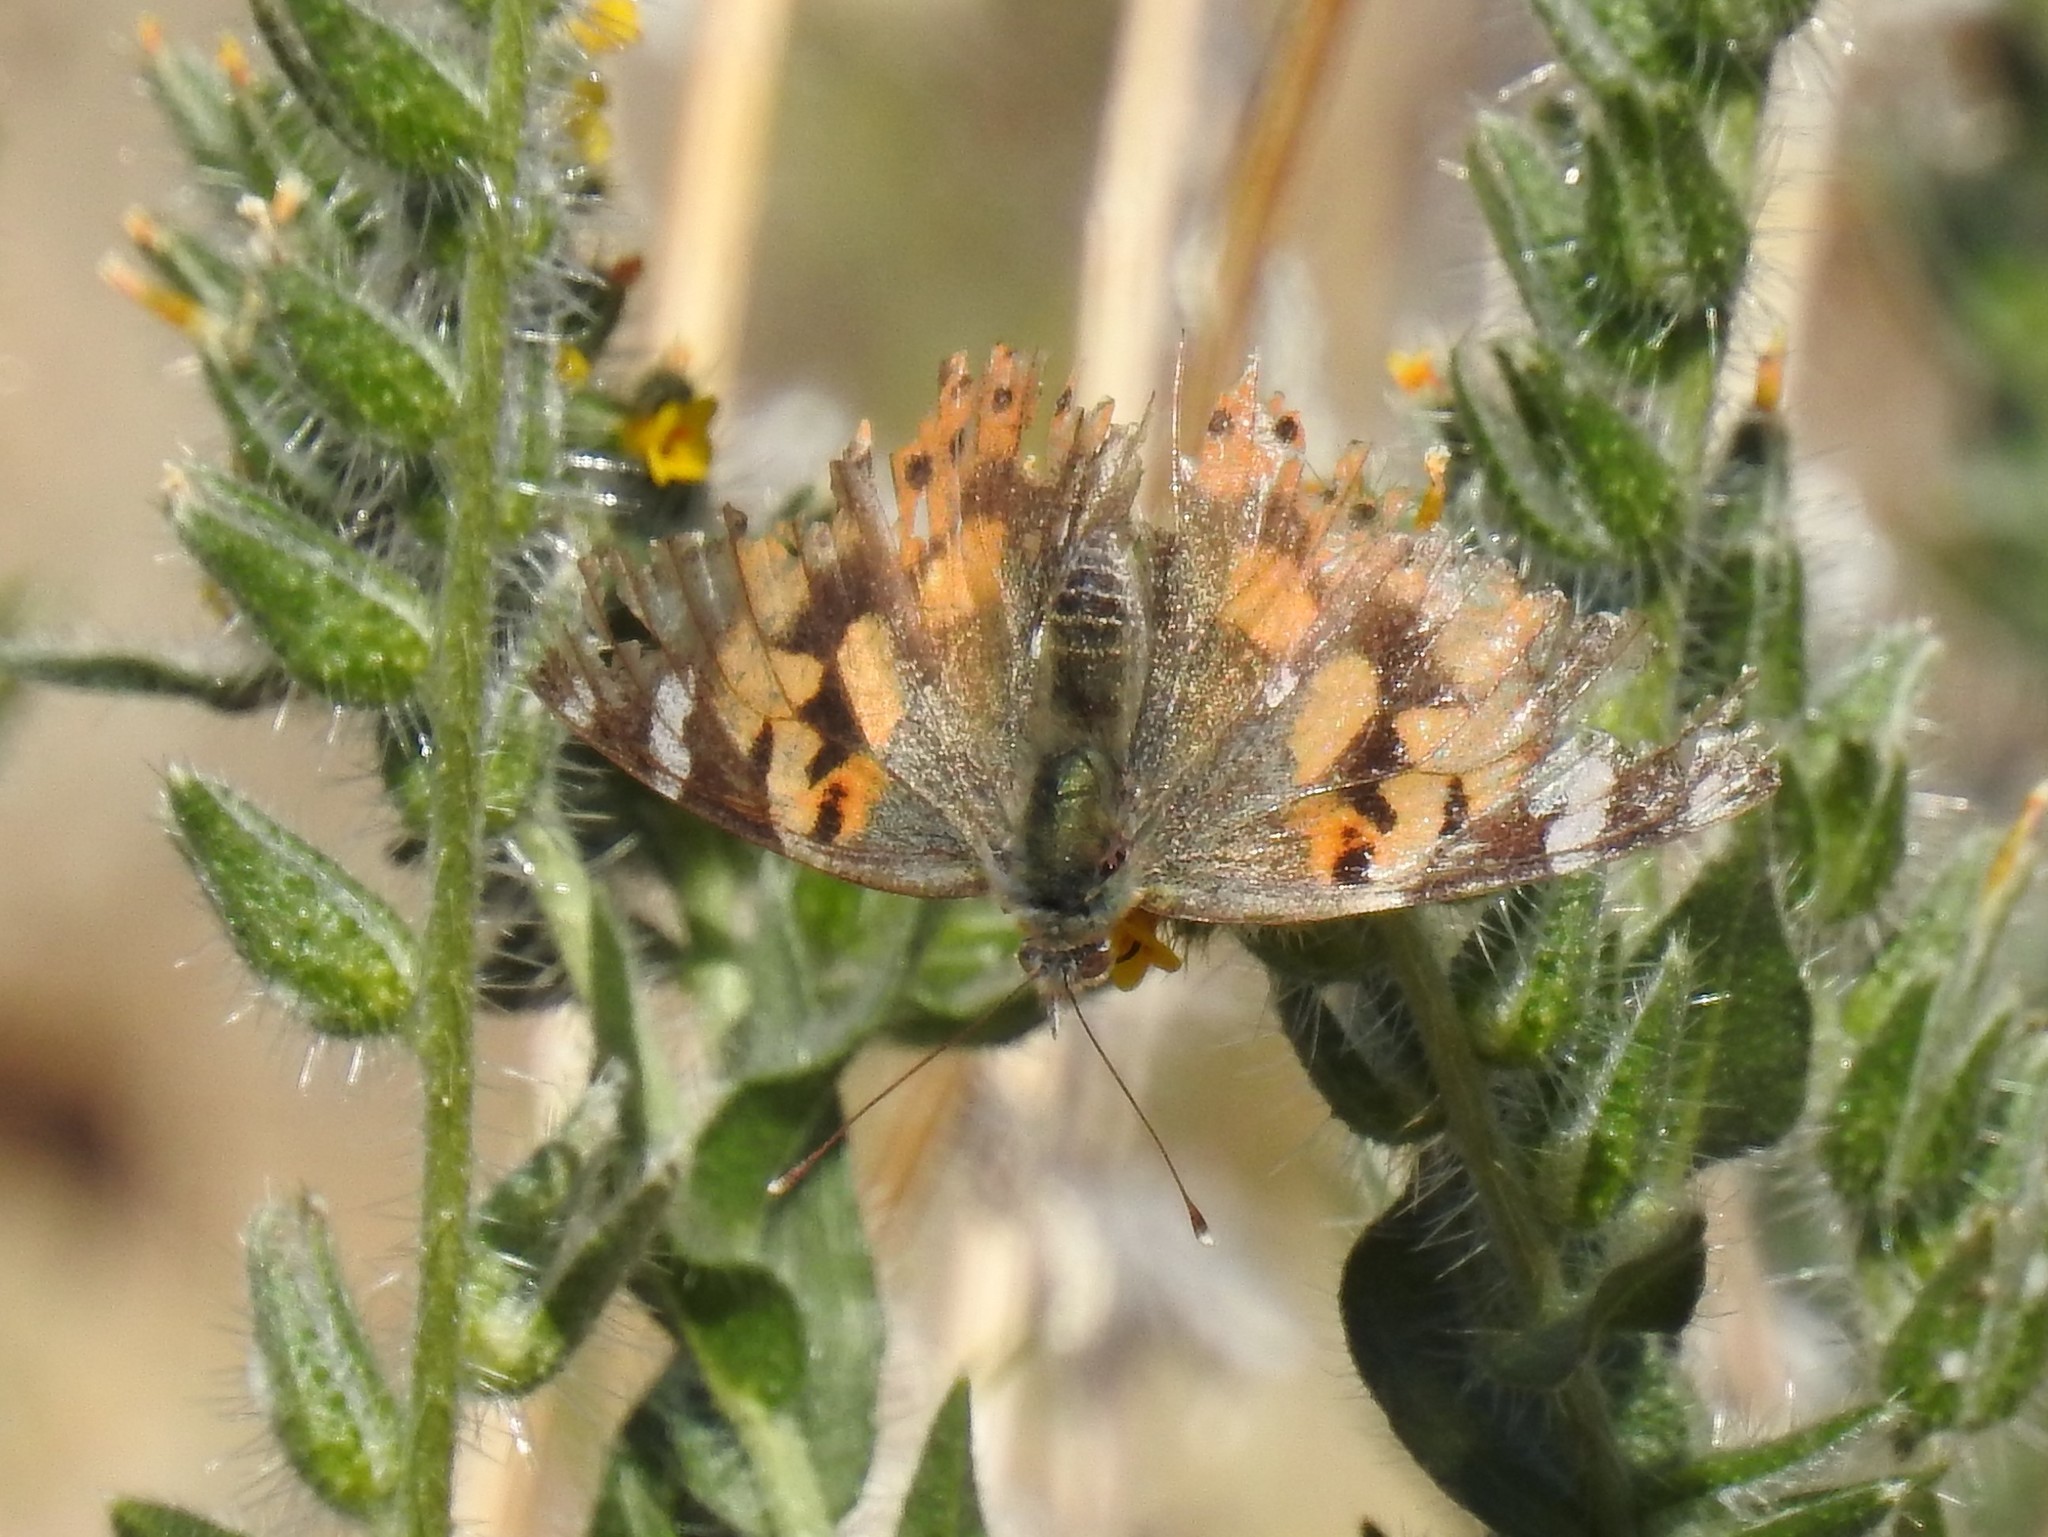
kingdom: Animalia
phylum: Arthropoda
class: Insecta
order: Lepidoptera
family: Nymphalidae
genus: Vanessa
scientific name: Vanessa cardui
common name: Painted lady
